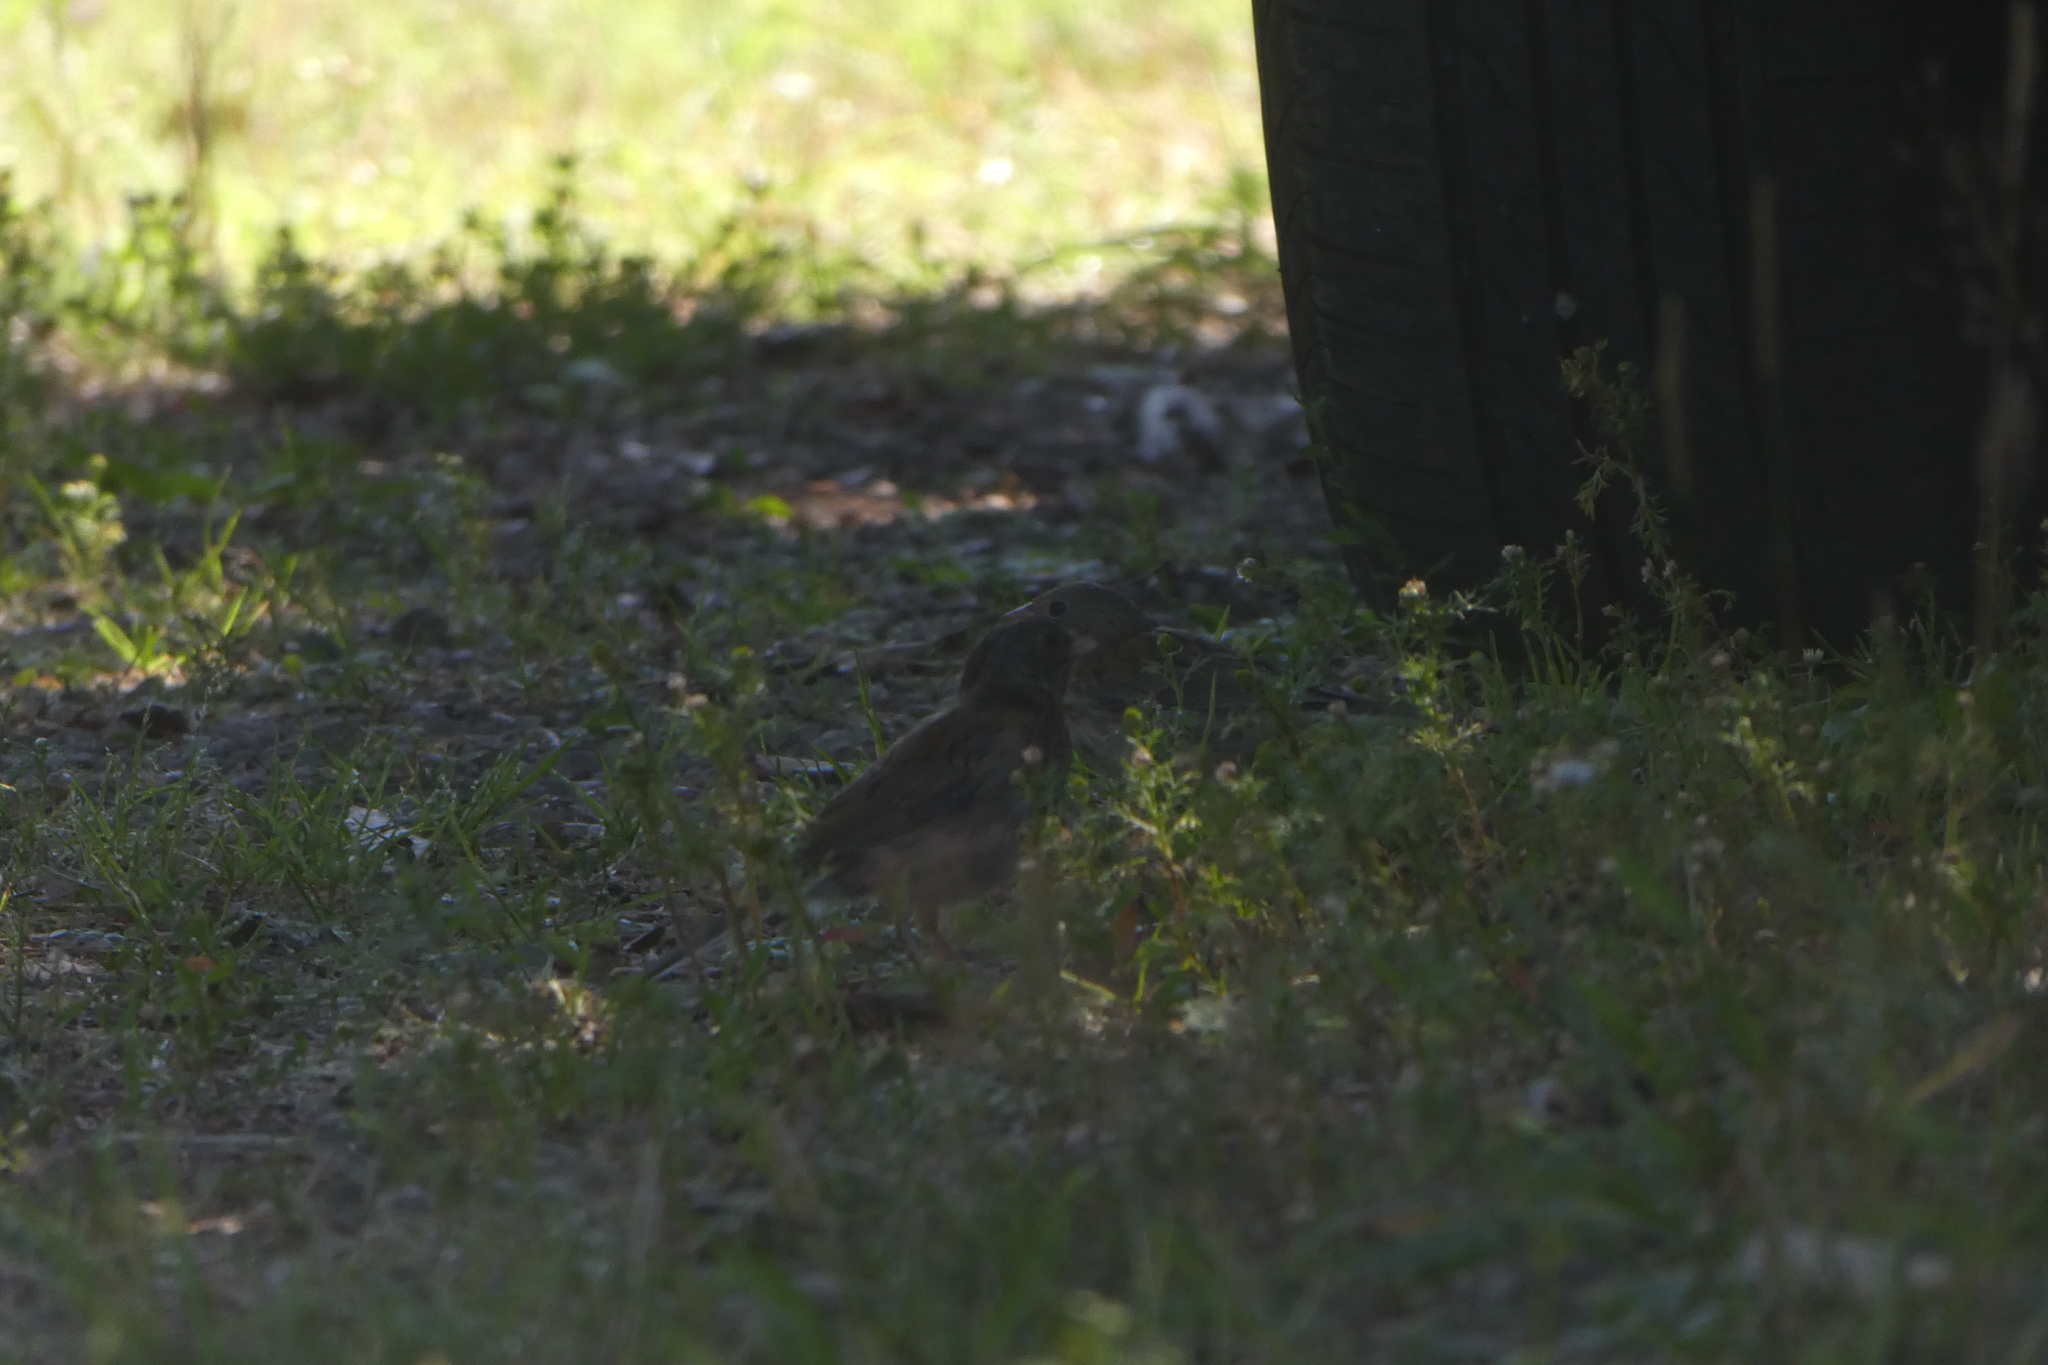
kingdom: Animalia
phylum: Chordata
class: Aves
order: Passeriformes
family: Passerellidae
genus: Junco
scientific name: Junco hyemalis
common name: Dark-eyed junco
